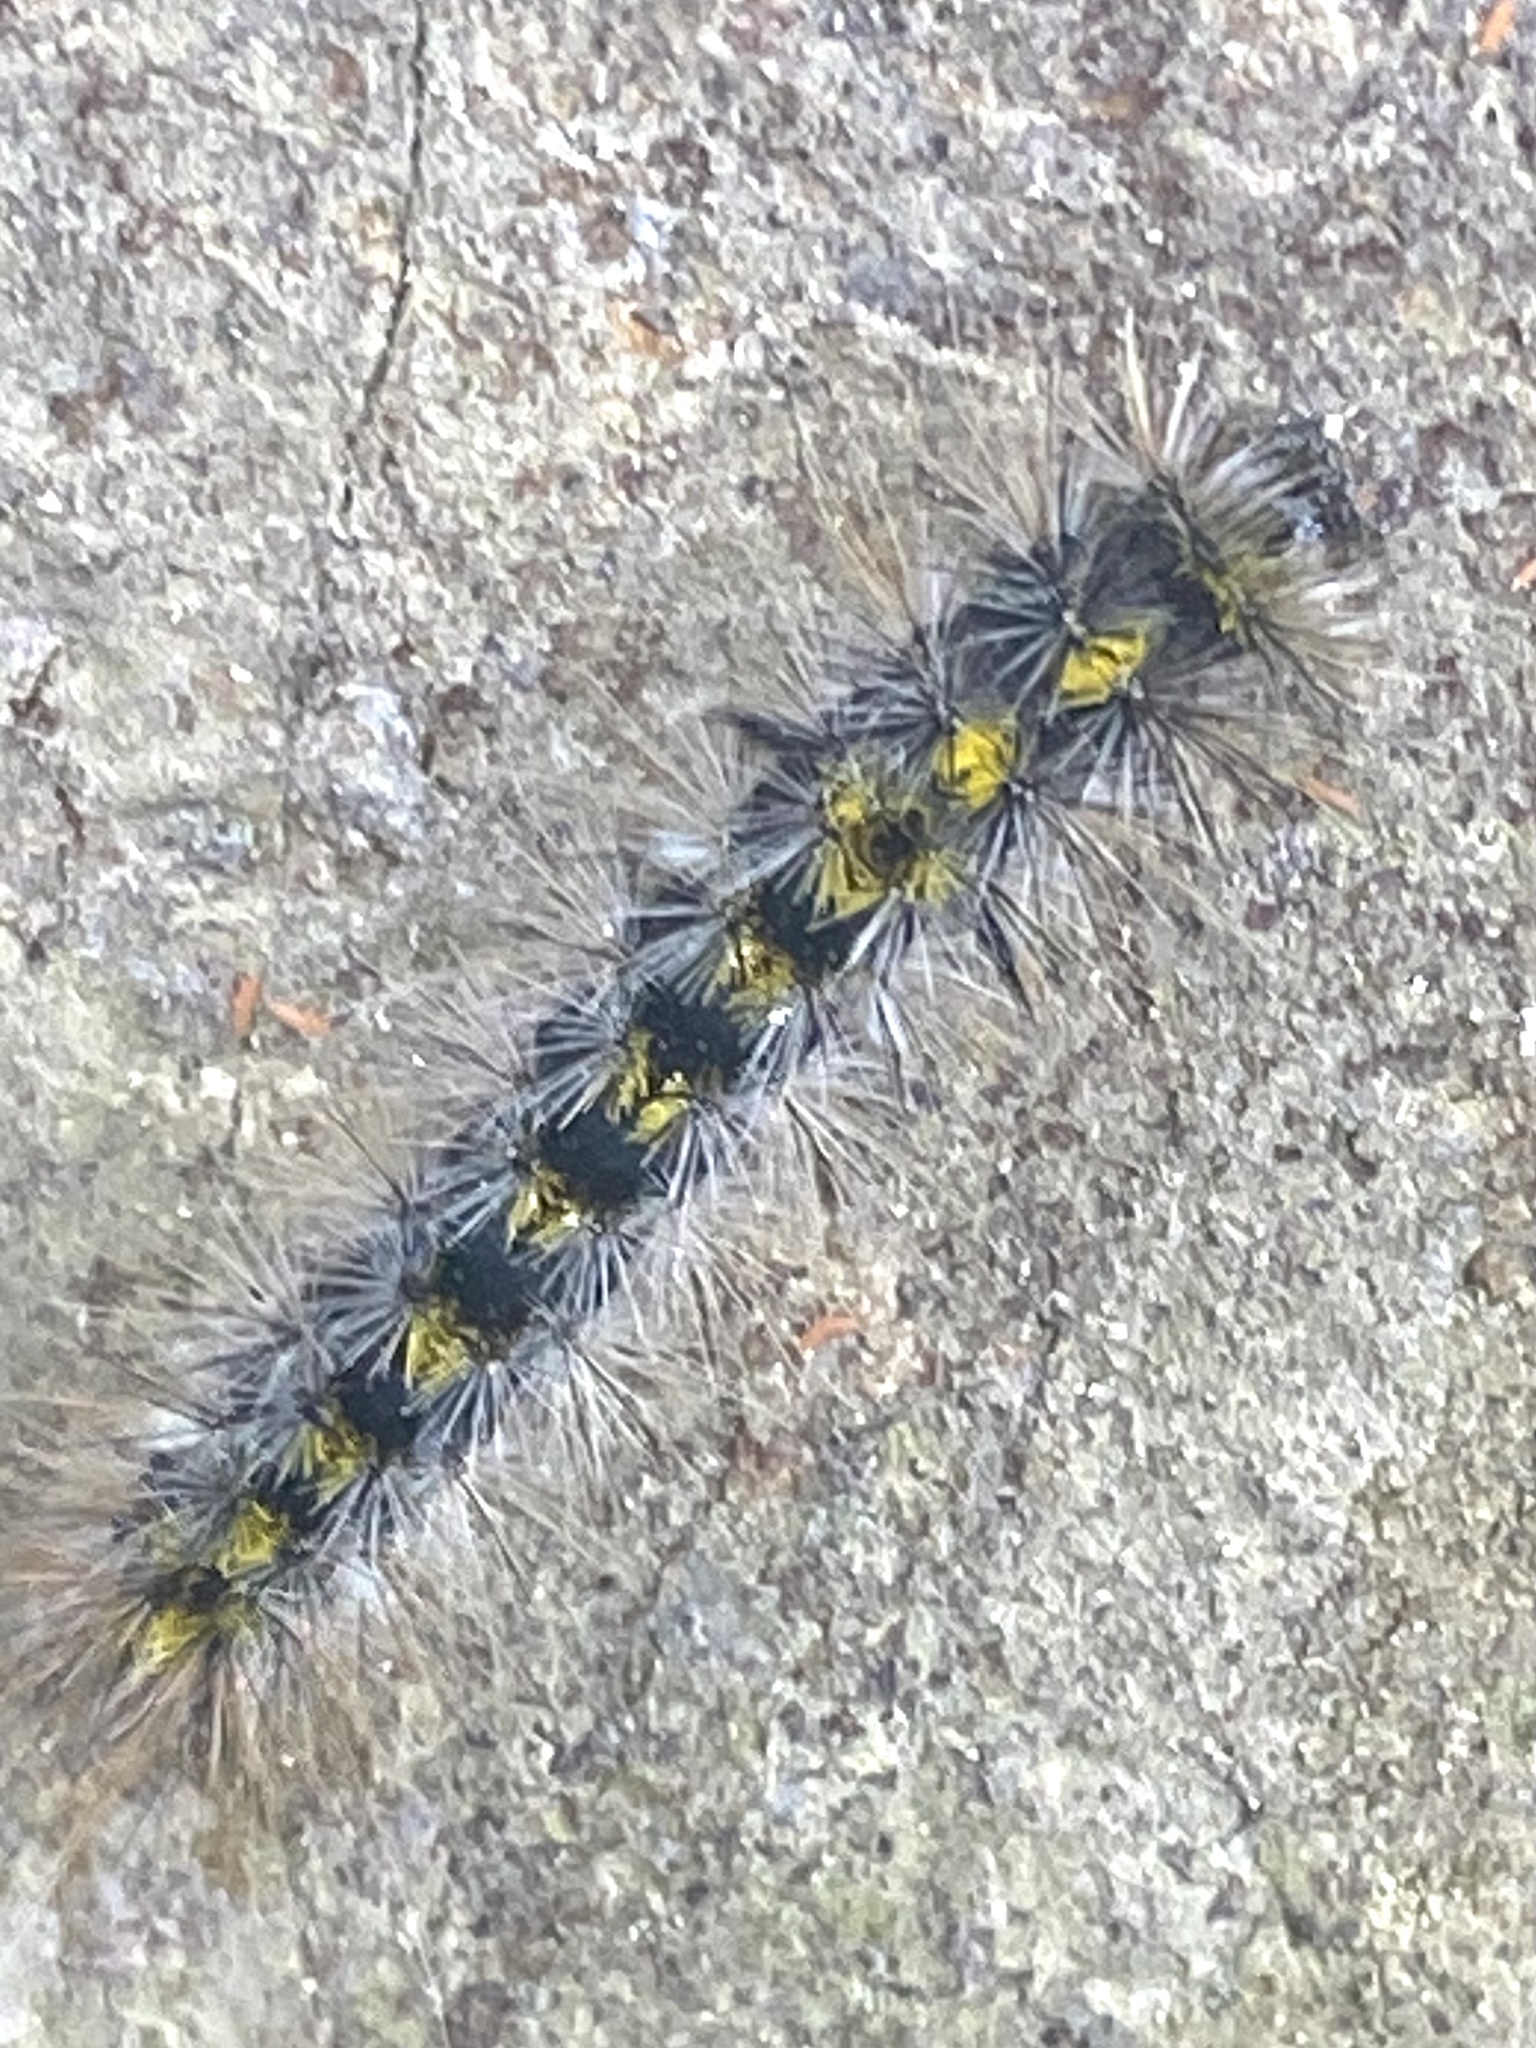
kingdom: Animalia
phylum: Arthropoda
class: Insecta
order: Lepidoptera
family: Erebidae
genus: Lophocampa
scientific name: Lophocampa sobrina
